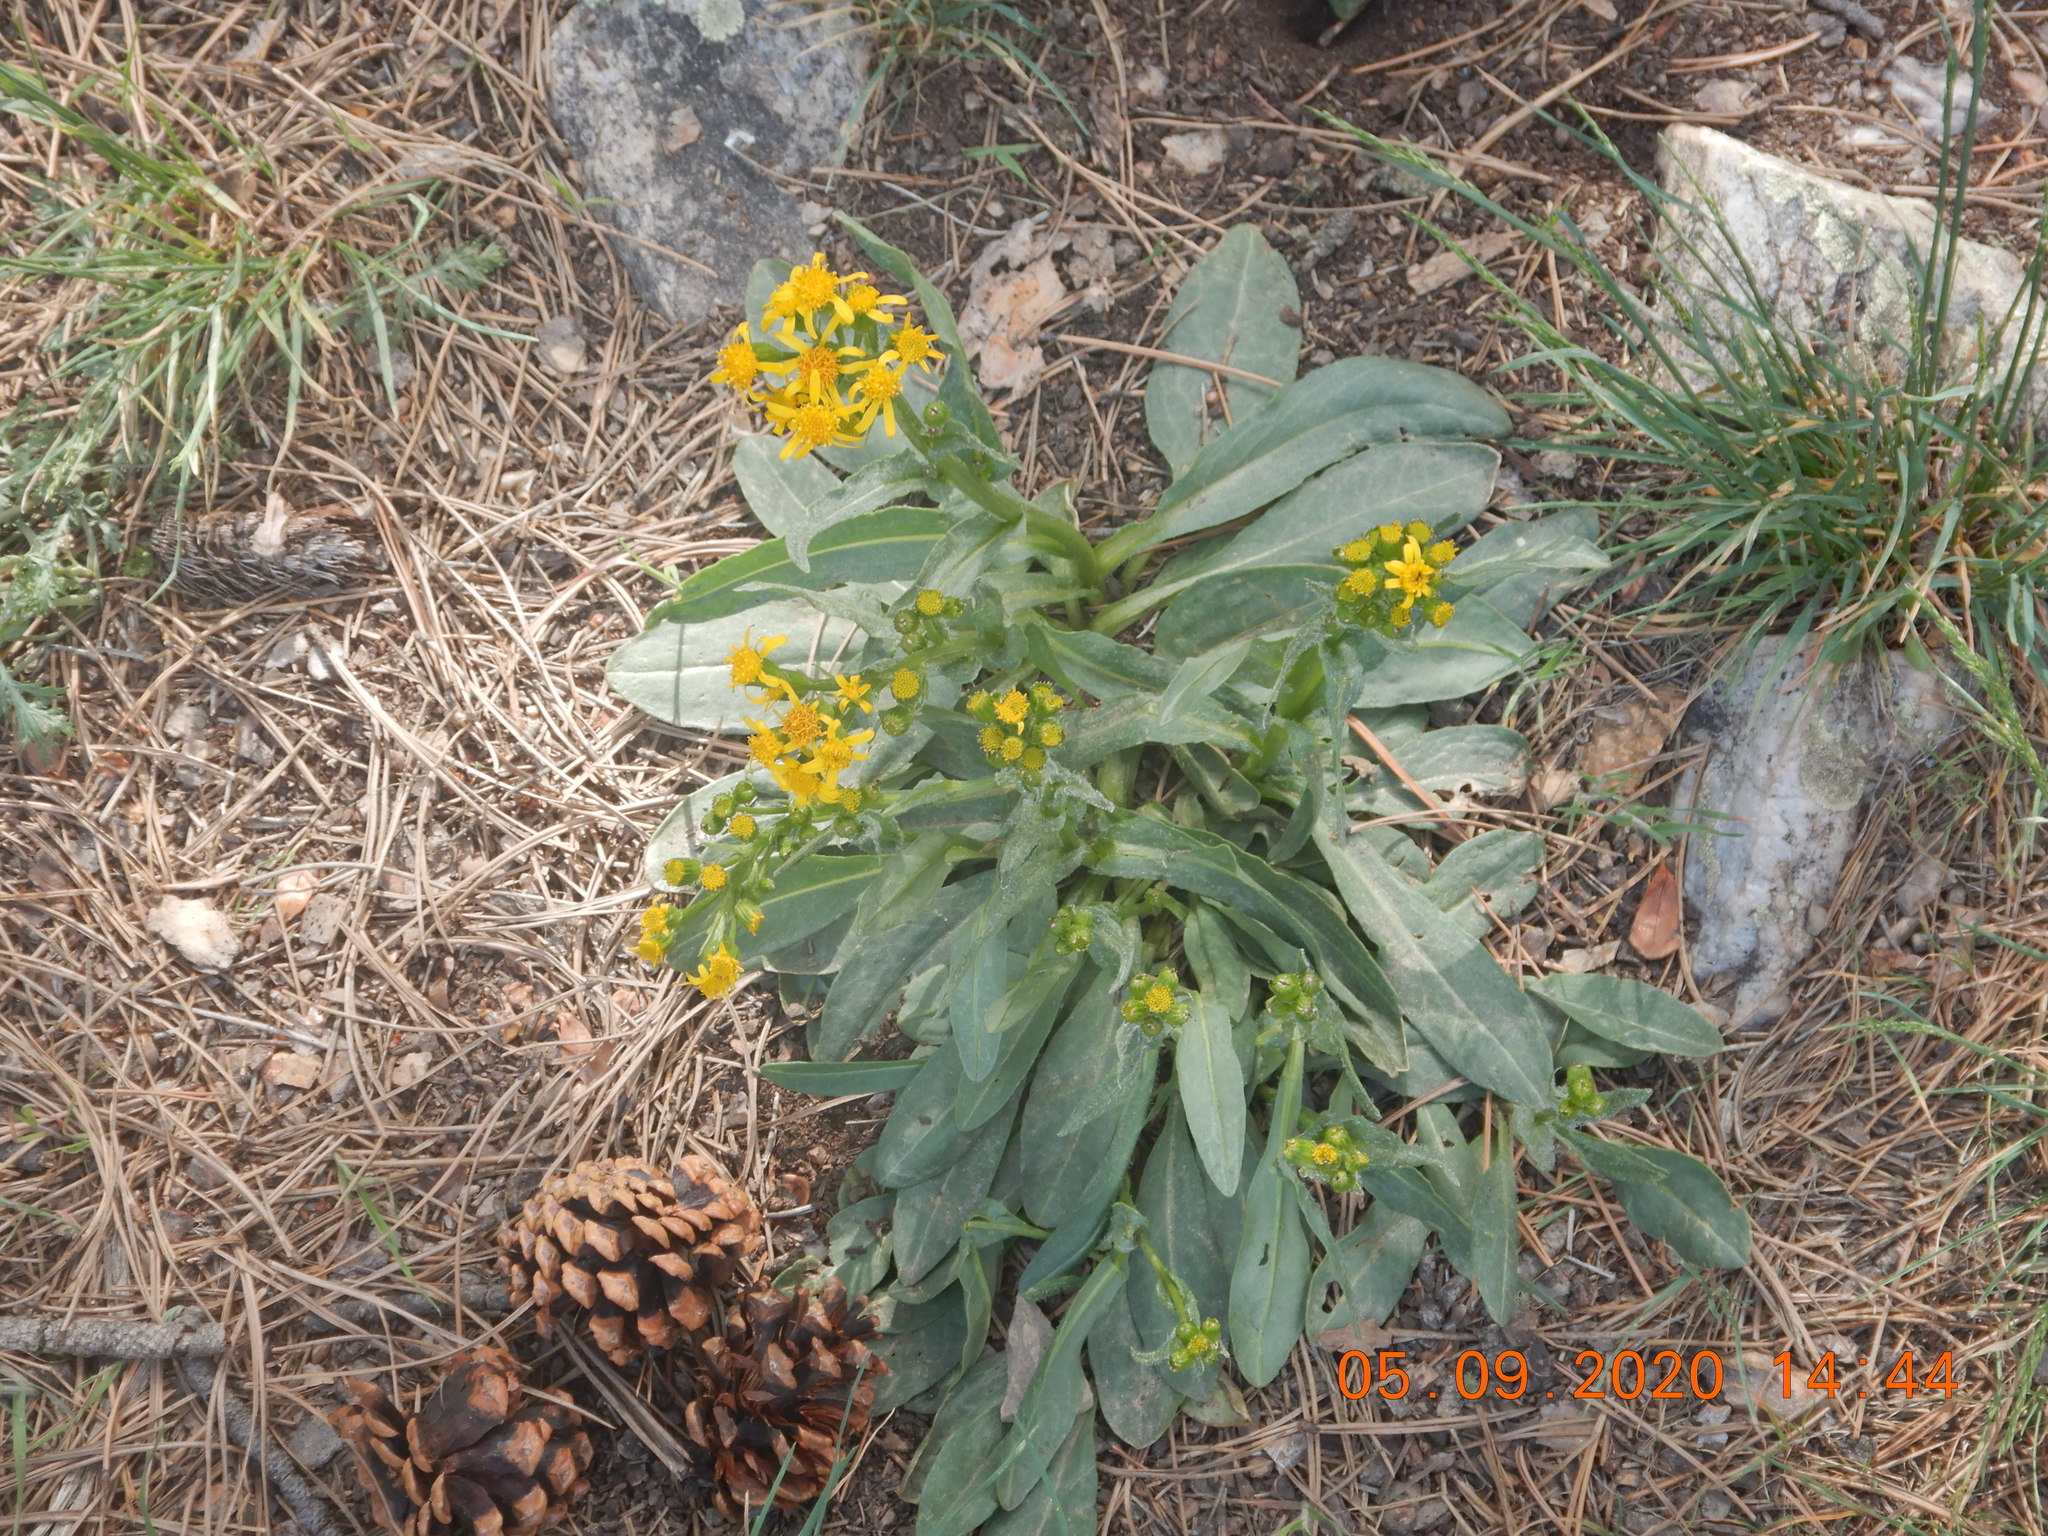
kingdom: Plantae
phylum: Tracheophyta
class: Magnoliopsida
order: Asterales
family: Asteraceae
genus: Senecio
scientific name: Senecio integerrimus
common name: Gaugeplant
